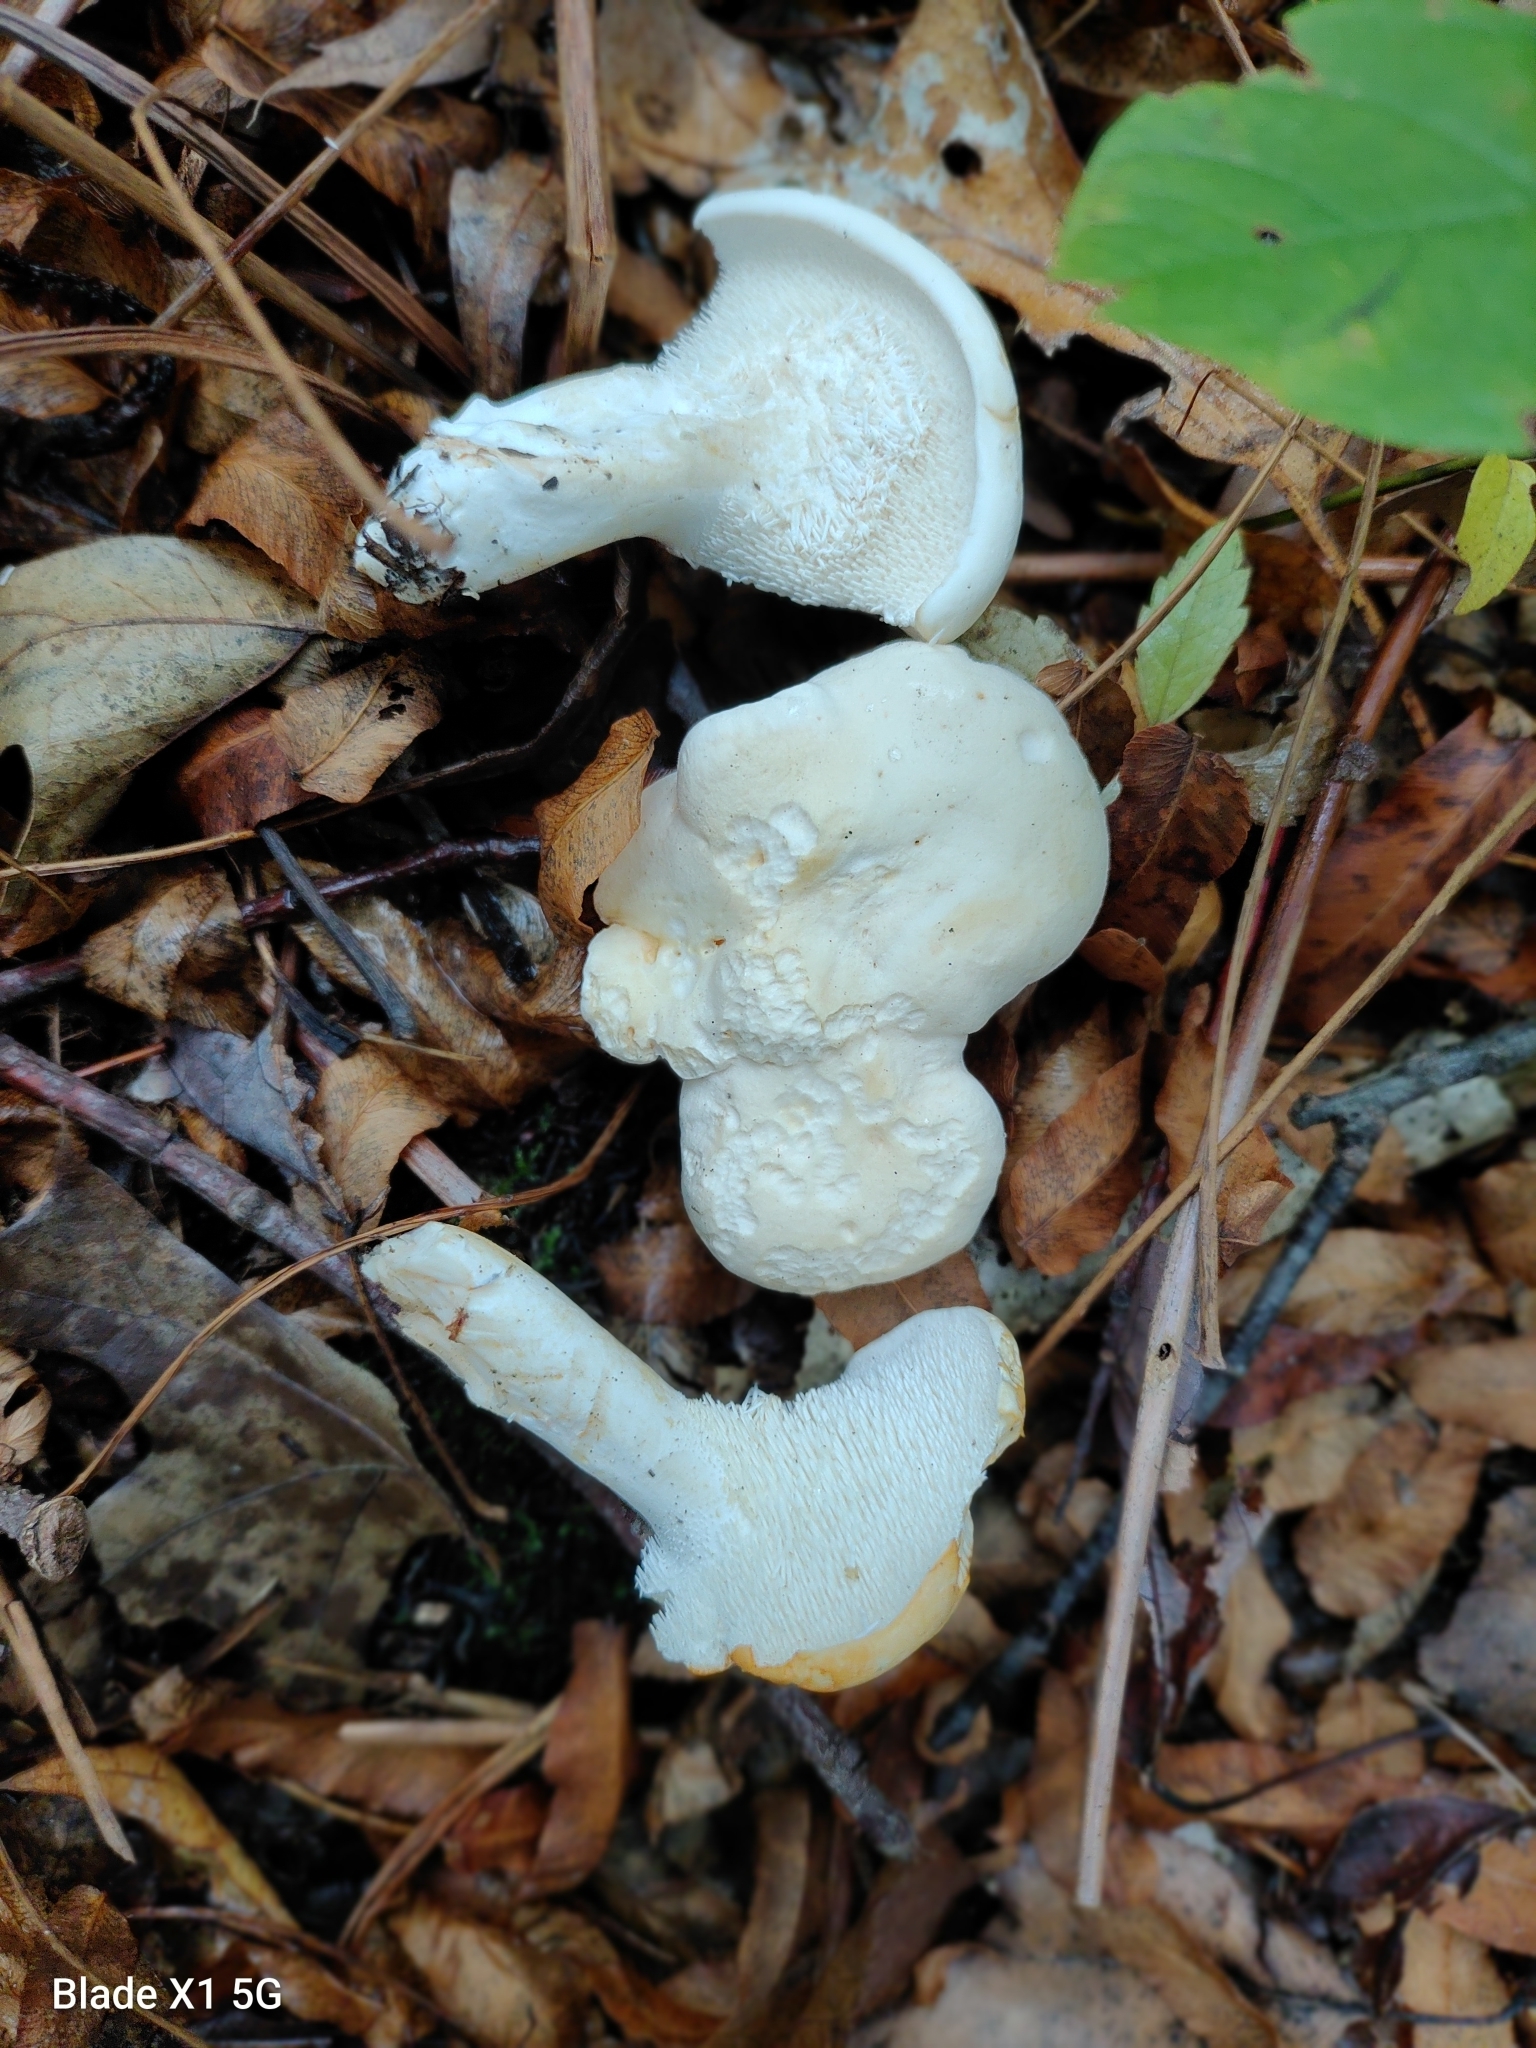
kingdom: Fungi
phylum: Basidiomycota
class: Agaricomycetes
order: Cantharellales
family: Hydnaceae
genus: Hydnum
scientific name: Hydnum albidum
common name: White hedgehog
